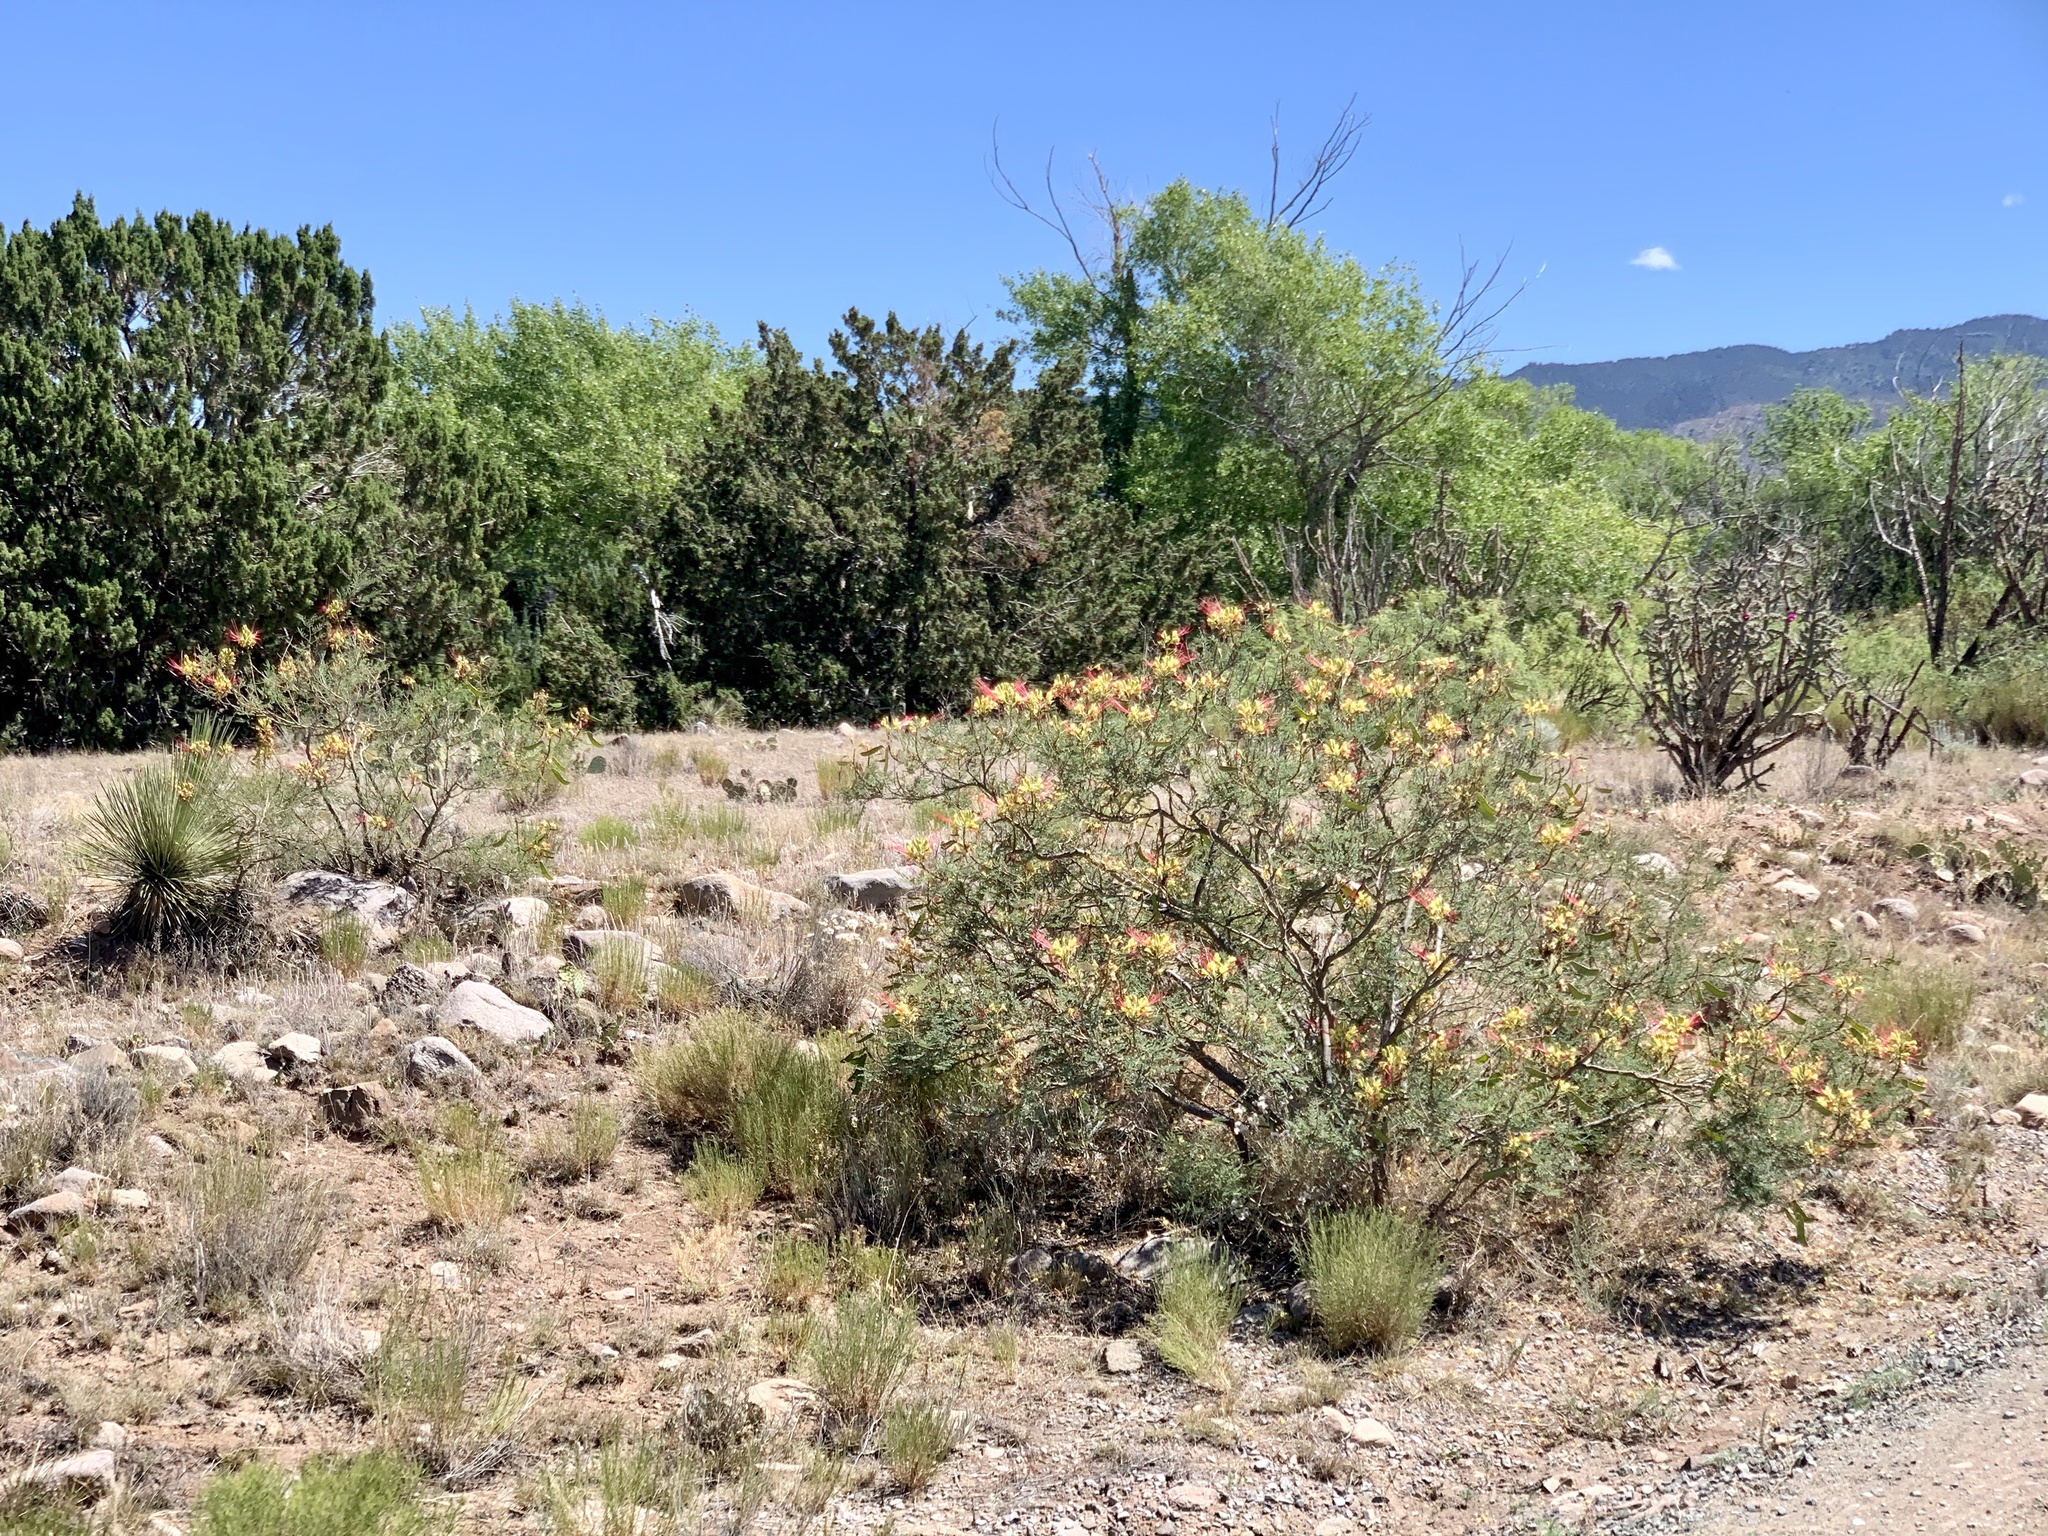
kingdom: Plantae
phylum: Tracheophyta
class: Magnoliopsida
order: Fabales
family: Fabaceae
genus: Erythrostemon
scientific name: Erythrostemon gilliesii
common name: Bird-of-paradise shrub
